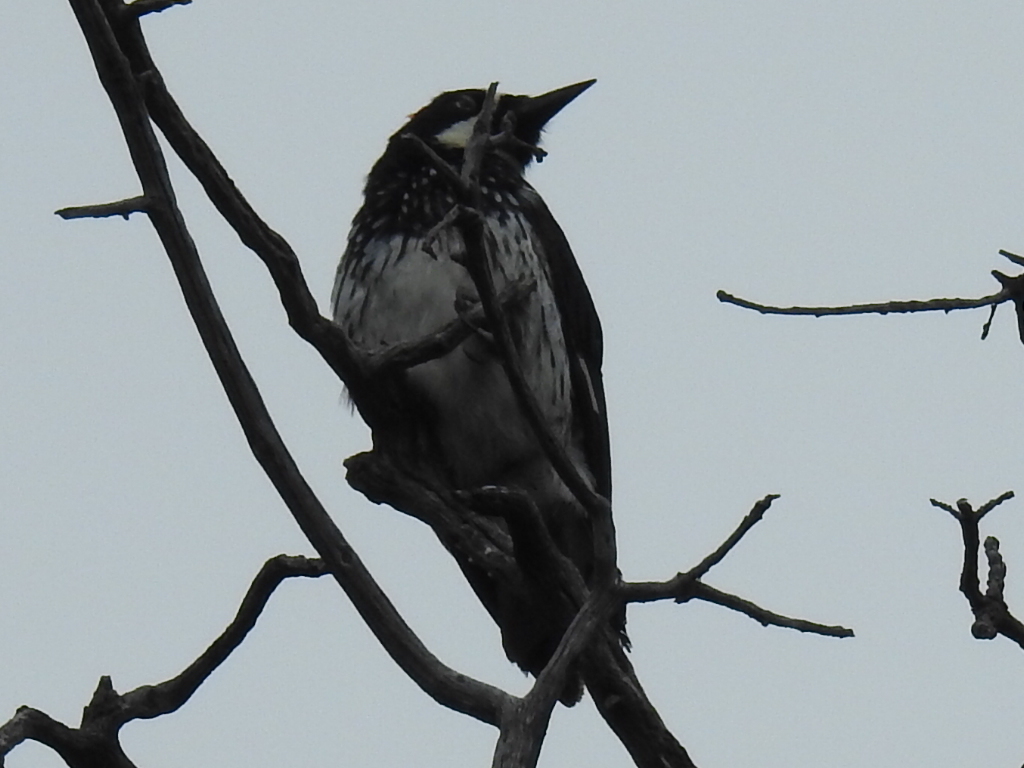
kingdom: Animalia
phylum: Chordata
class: Aves
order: Piciformes
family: Picidae
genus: Melanerpes
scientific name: Melanerpes formicivorus
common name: Acorn woodpecker
